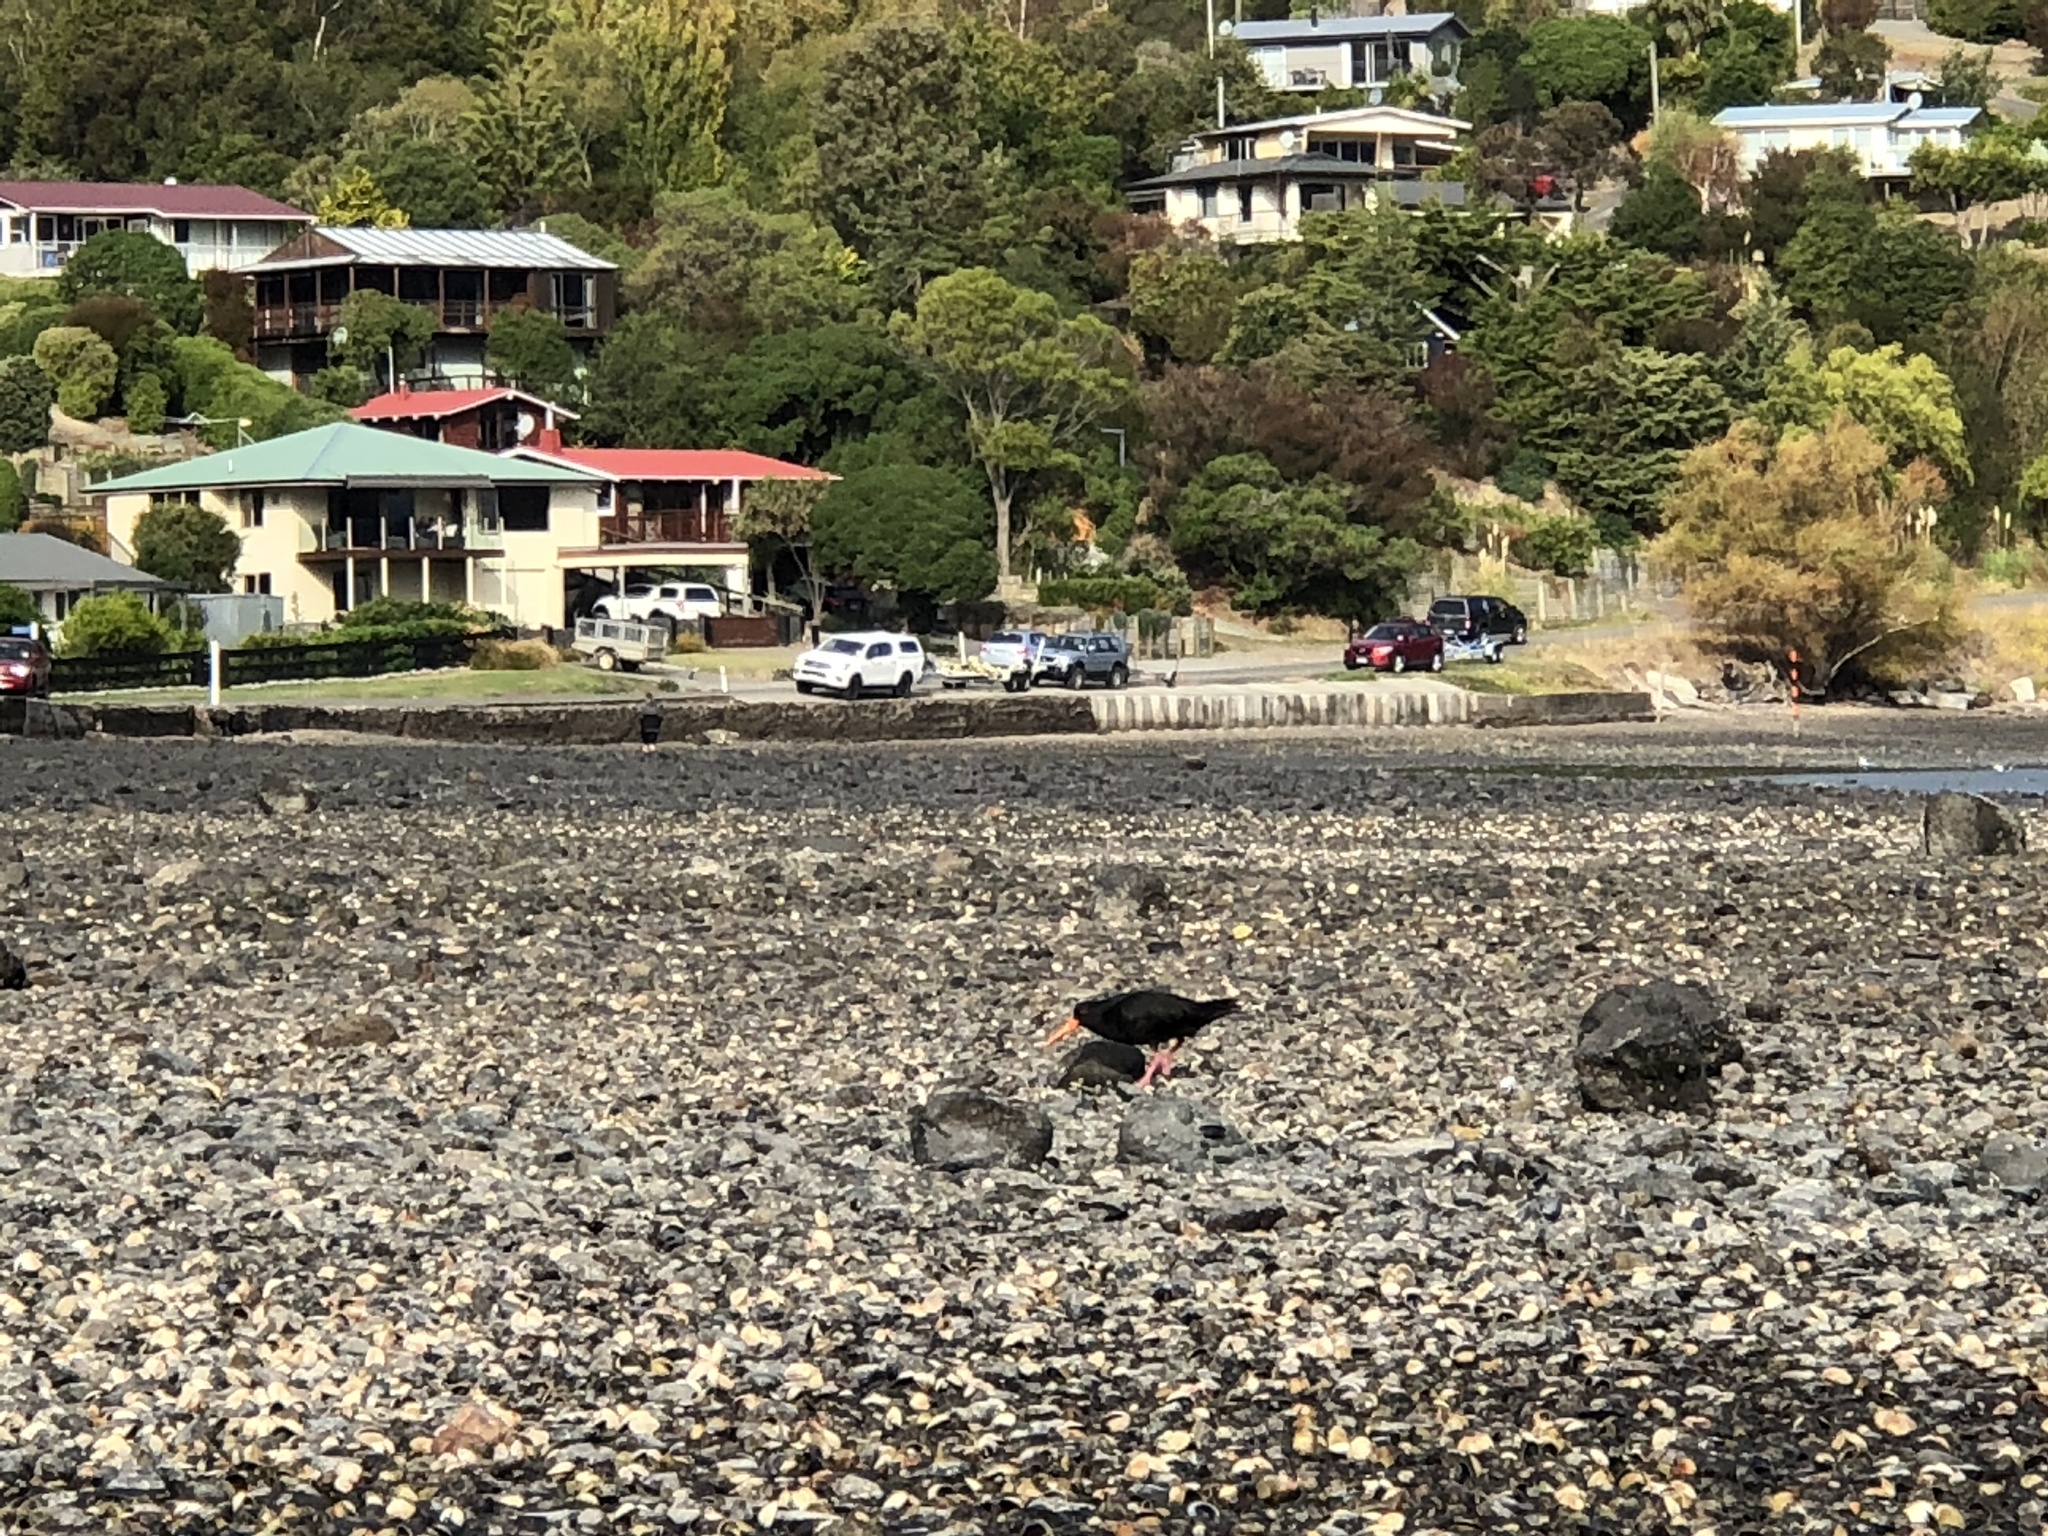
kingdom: Animalia
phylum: Chordata
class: Aves
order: Charadriiformes
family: Haematopodidae
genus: Haematopus
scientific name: Haematopus unicolor
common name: Variable oystercatcher
